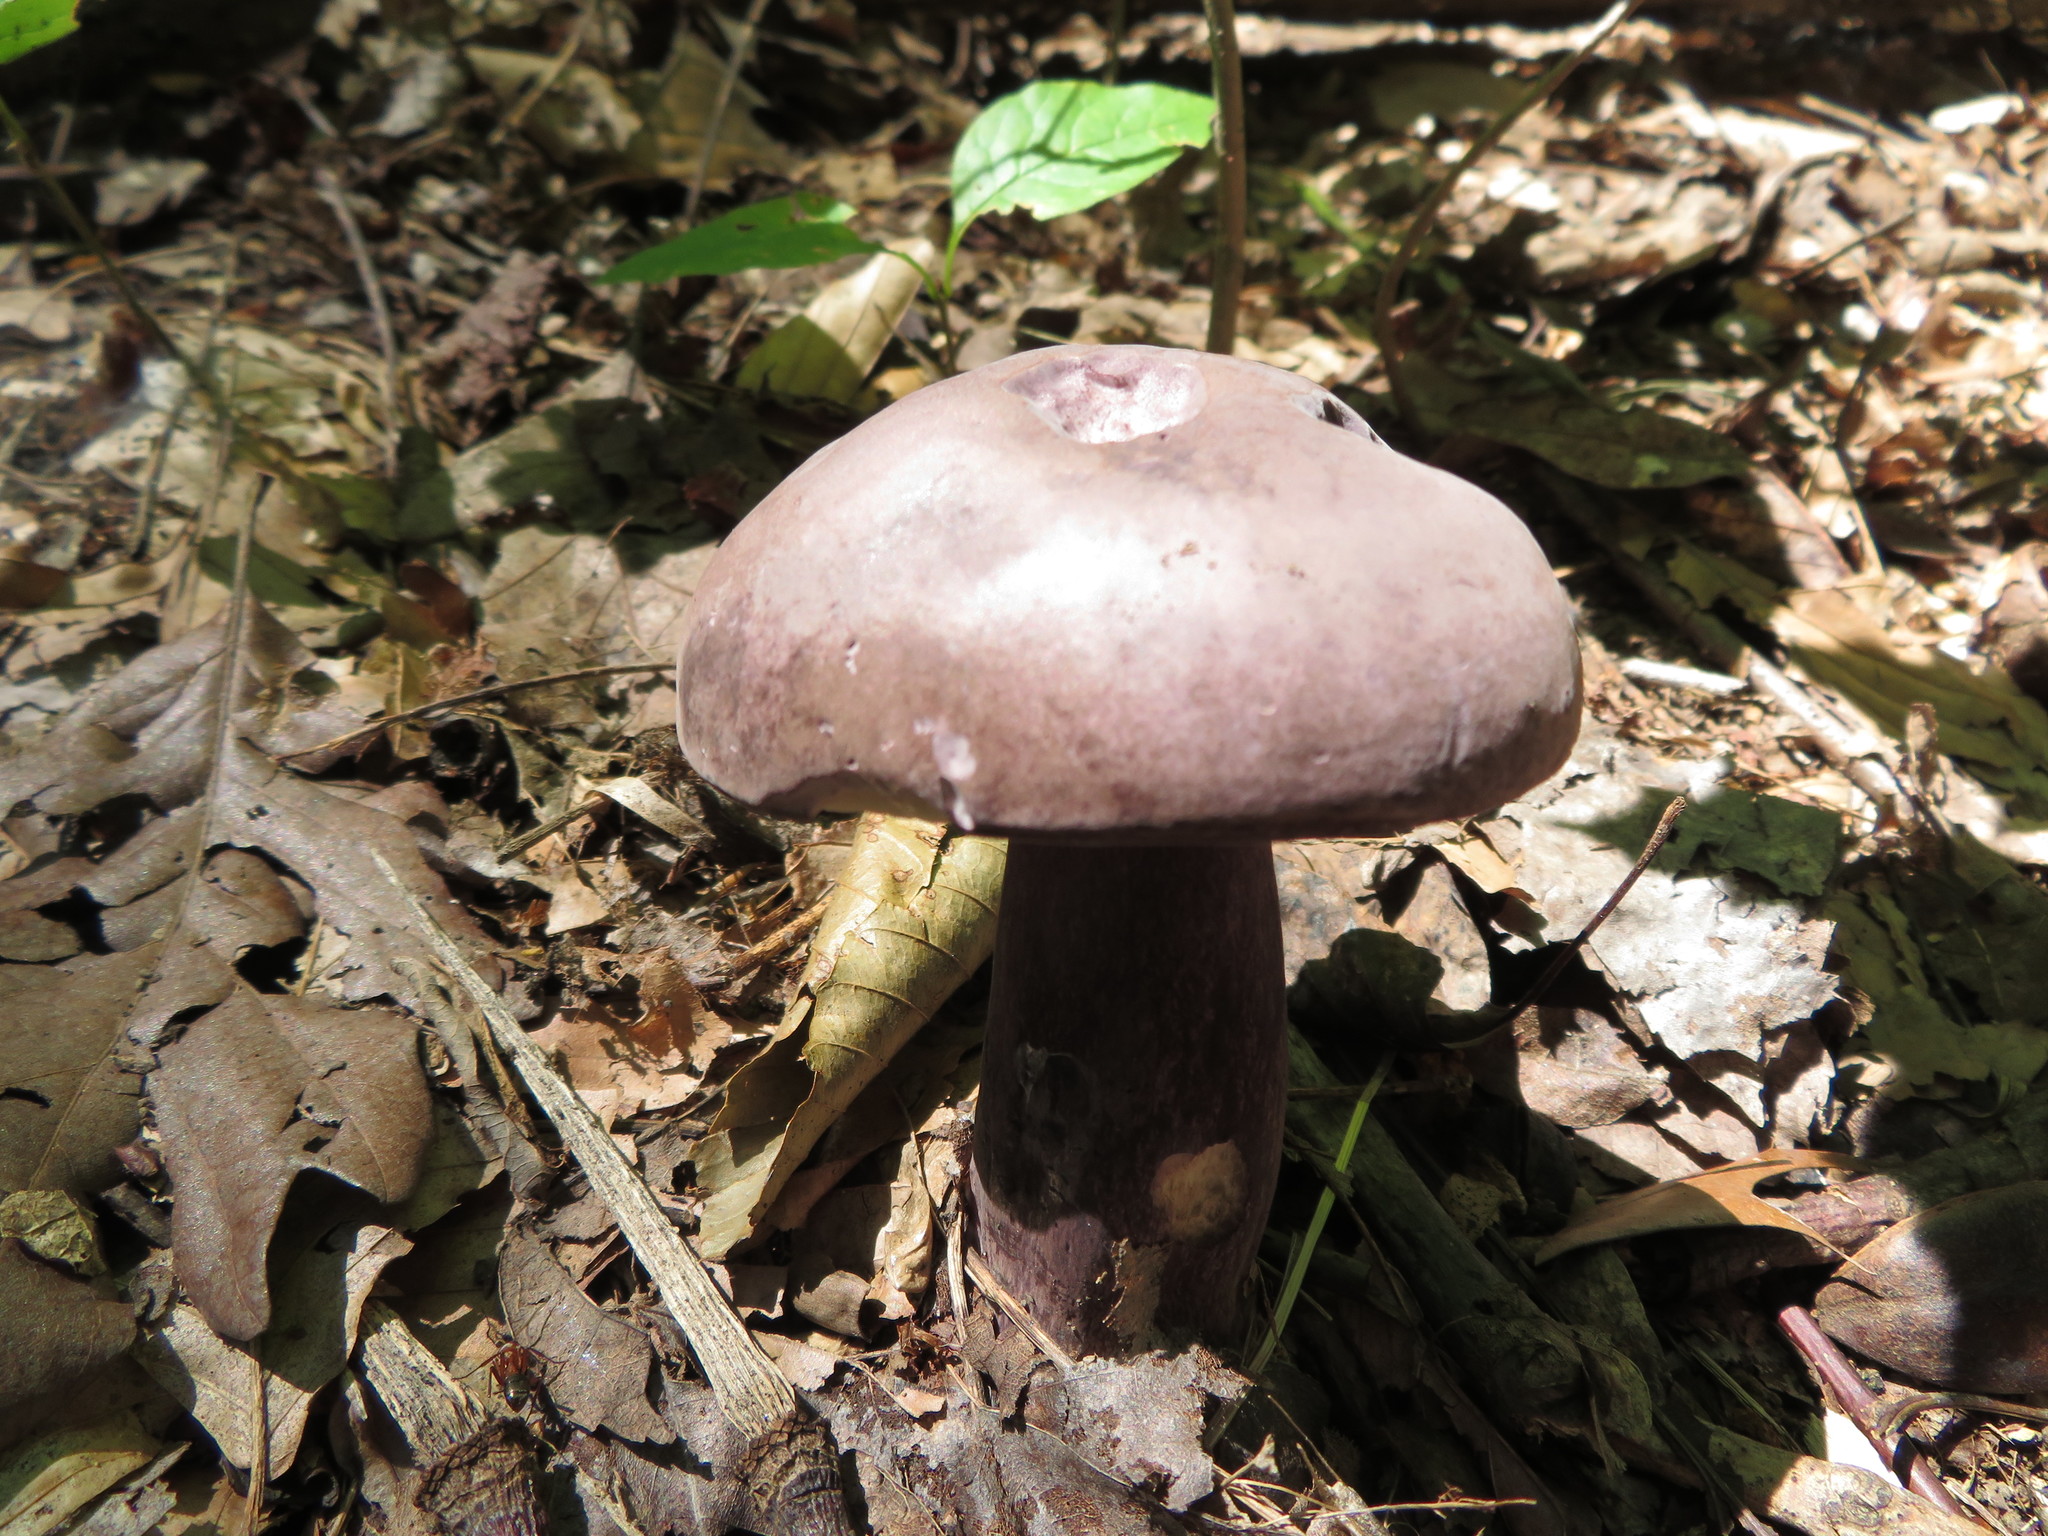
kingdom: Fungi
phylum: Basidiomycota
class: Agaricomycetes
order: Boletales
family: Boletaceae
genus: Tylopilus
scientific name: Tylopilus plumbeoviolaceus
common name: Violet gray bolete
